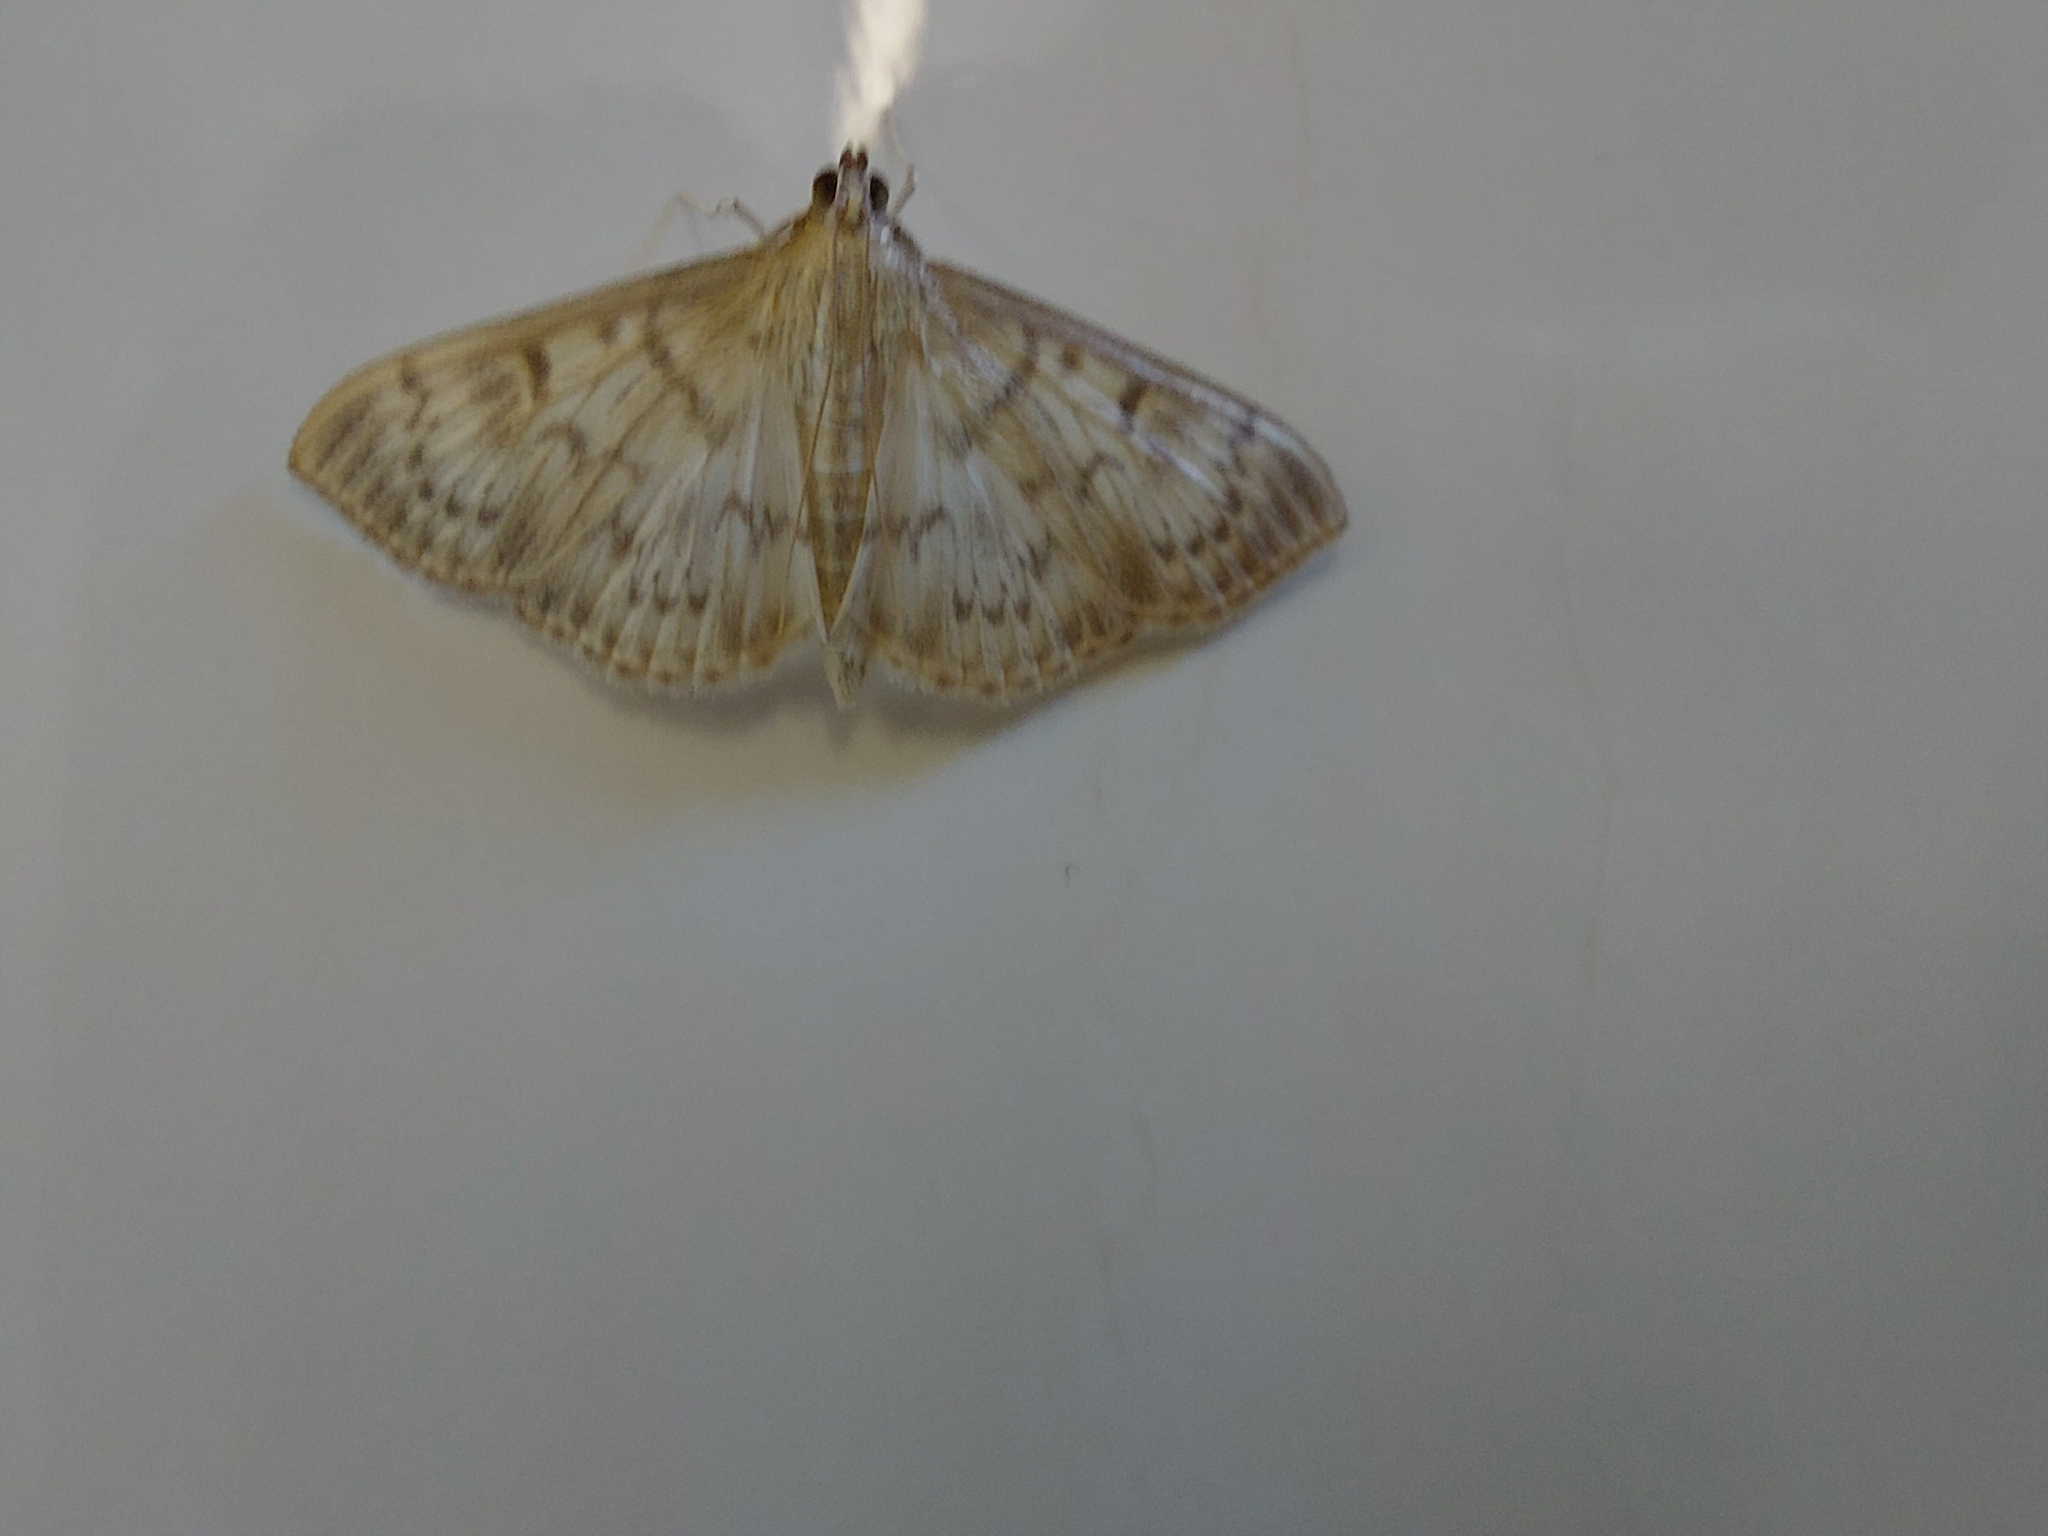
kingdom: Animalia
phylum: Arthropoda
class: Insecta
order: Lepidoptera
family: Crambidae
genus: Patania
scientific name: Patania ruralis
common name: Mother of pearl
